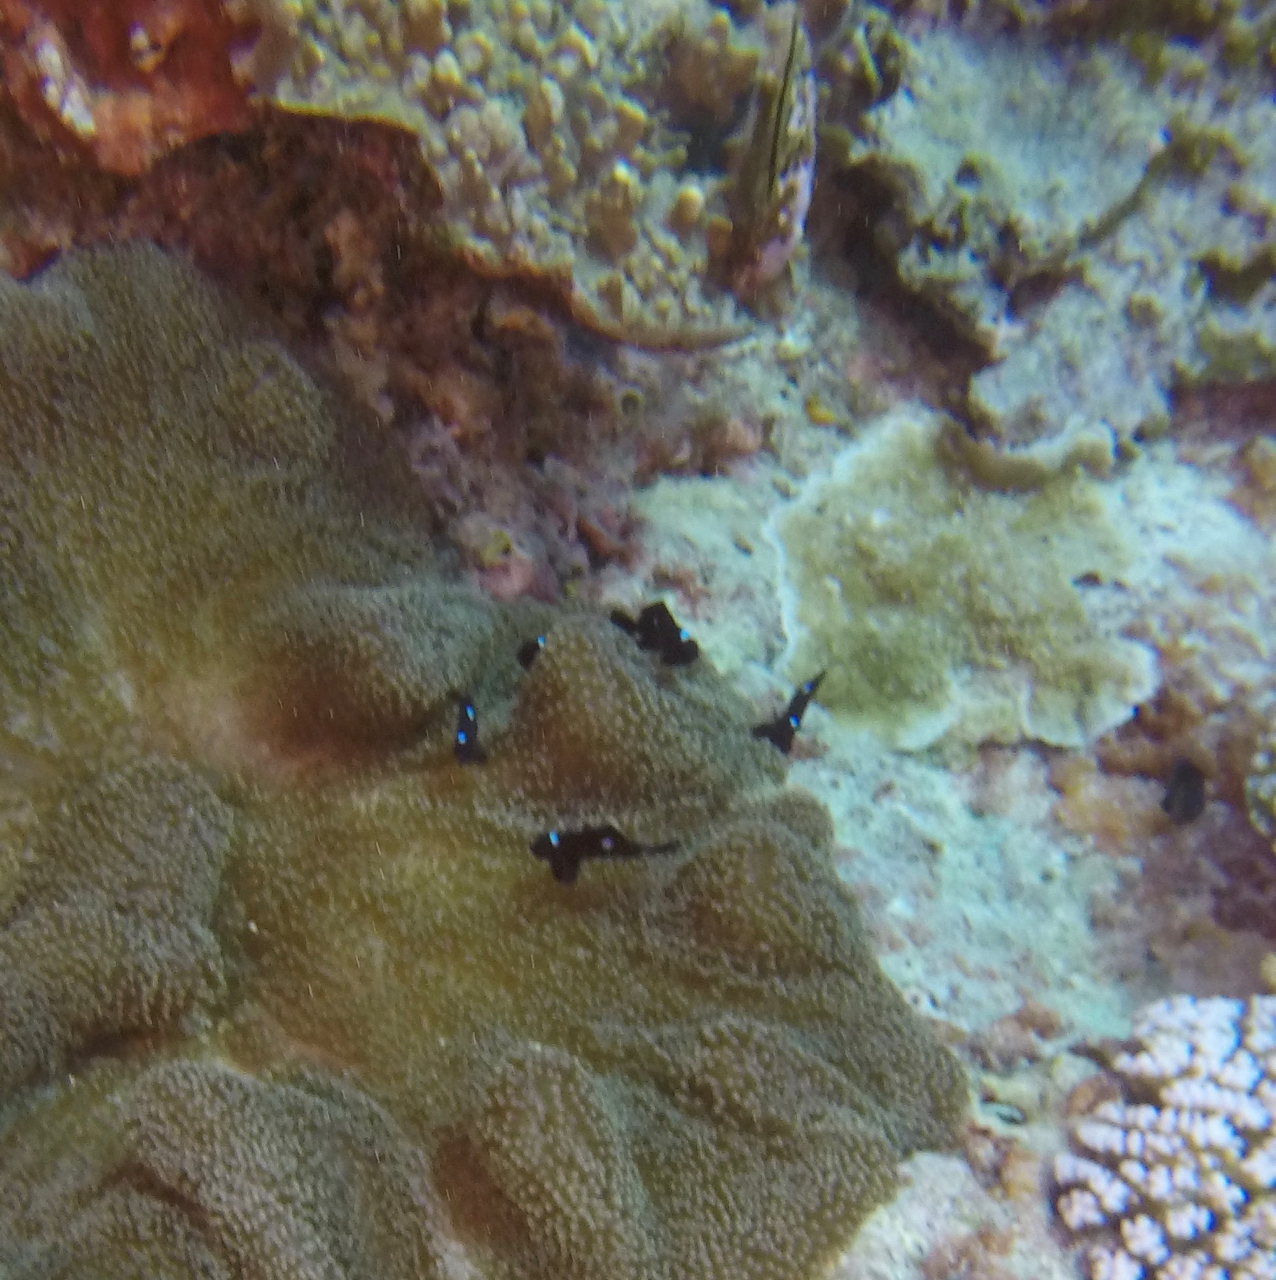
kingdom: Animalia
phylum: Chordata
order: Perciformes
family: Pomacentridae
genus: Dascyllus
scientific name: Dascyllus trimaculatus
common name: Threespot dascyllus
